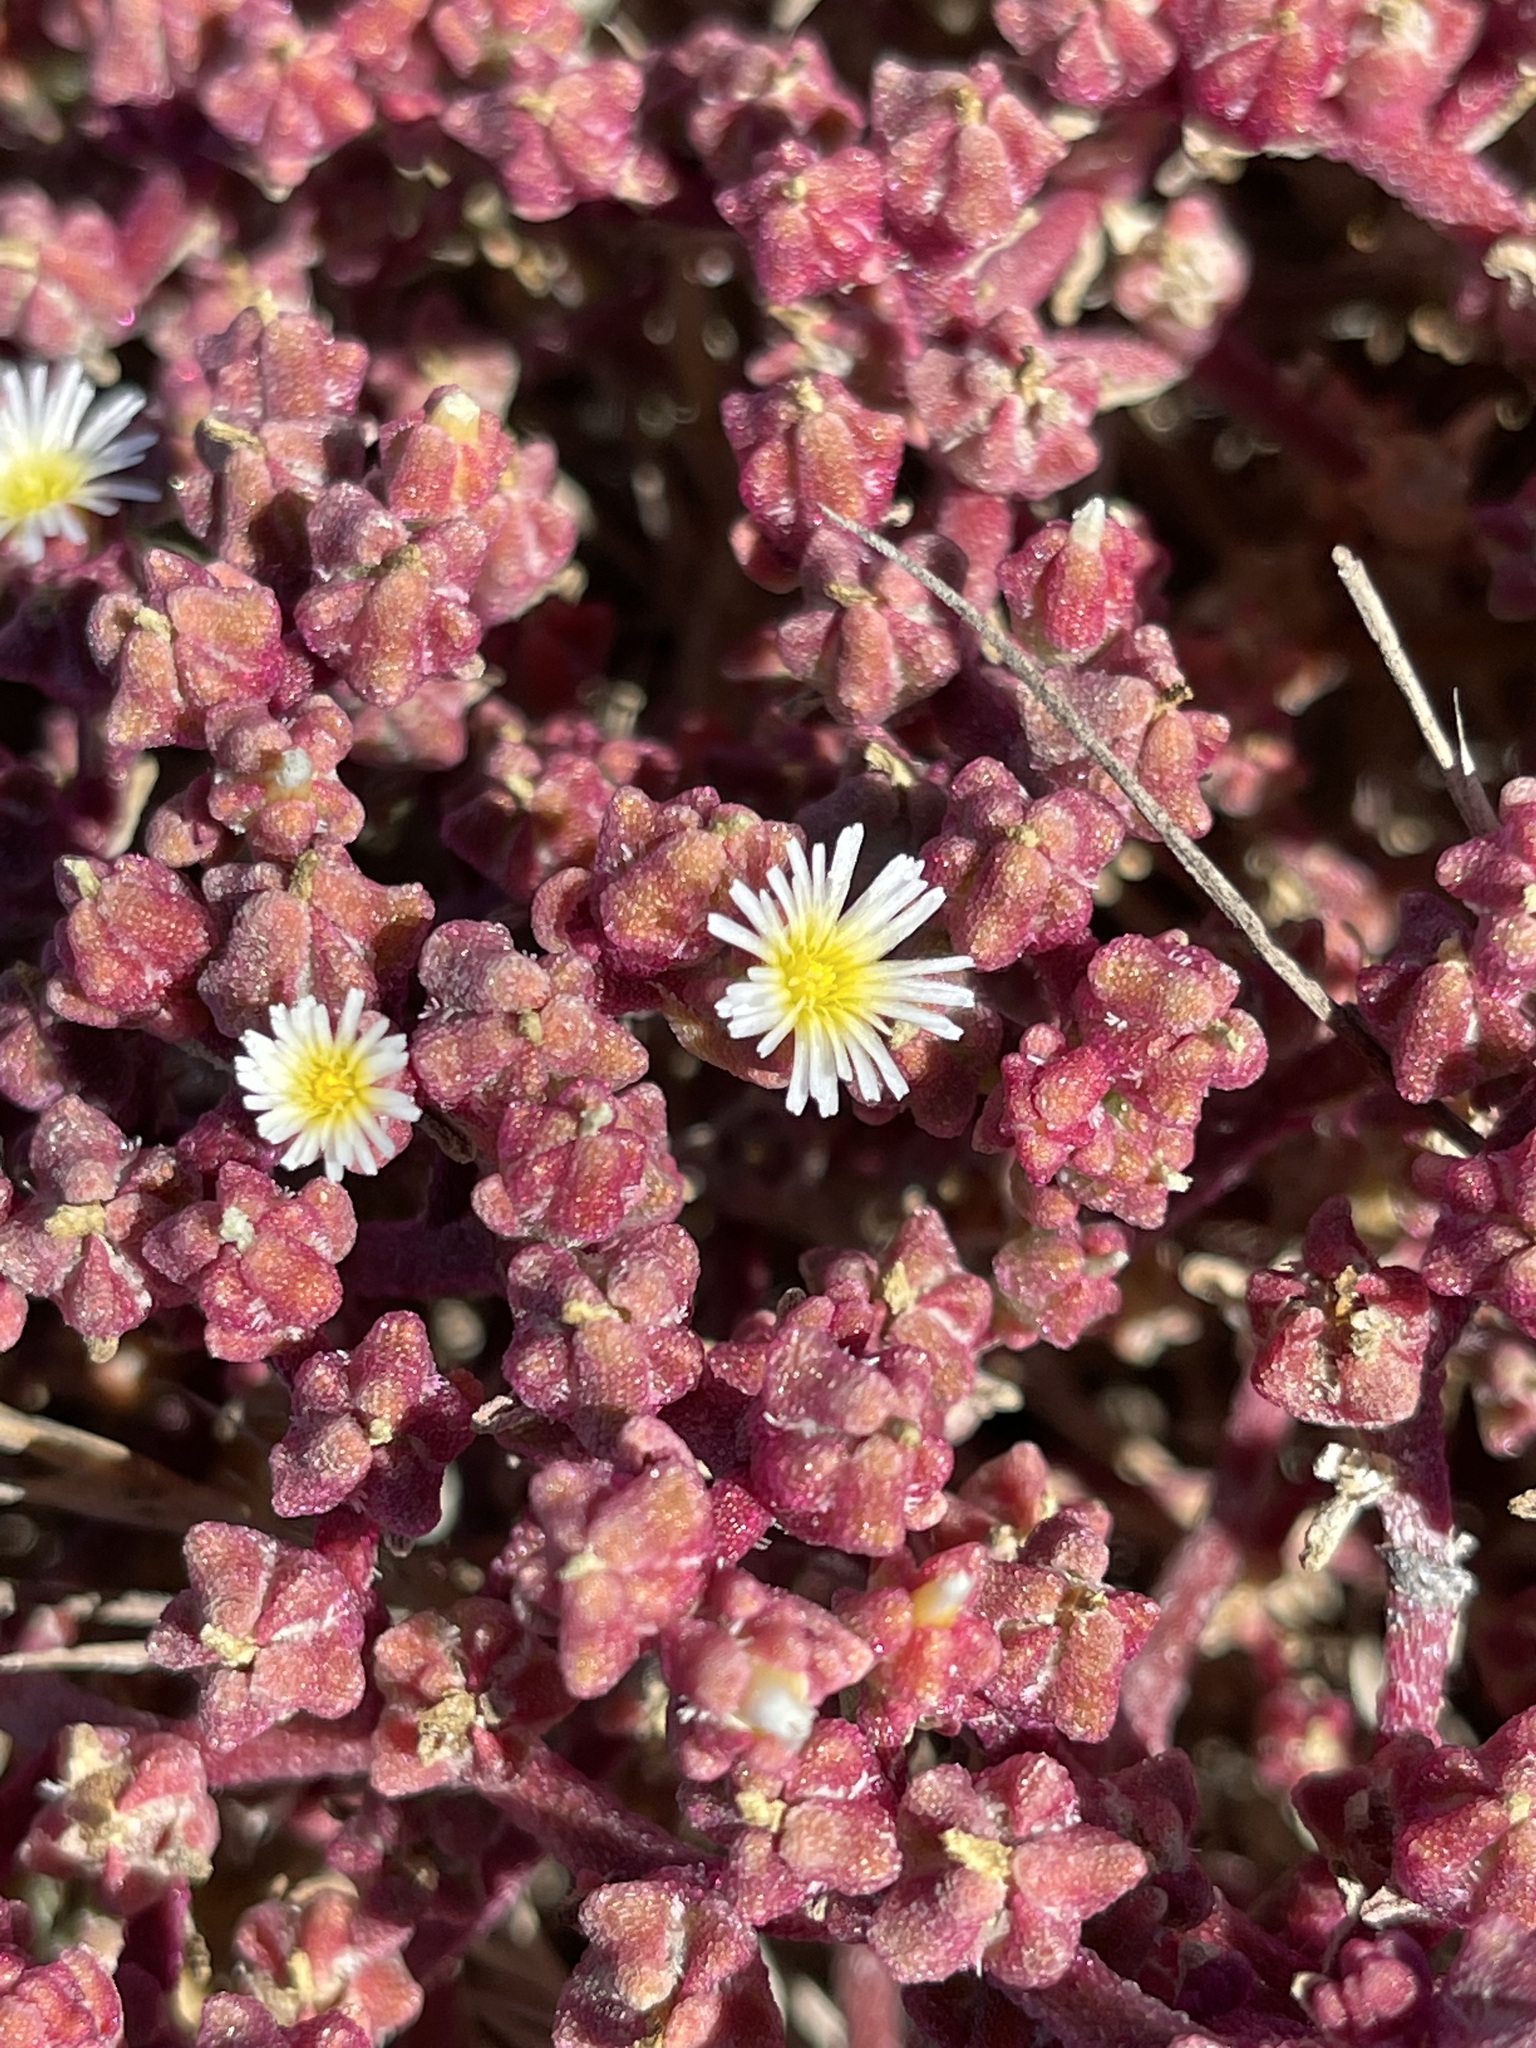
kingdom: Plantae
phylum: Tracheophyta
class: Magnoliopsida
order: Caryophyllales
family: Aizoaceae
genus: Mesembryanthemum
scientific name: Mesembryanthemum nodiflorum
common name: Slenderleaf iceplant
